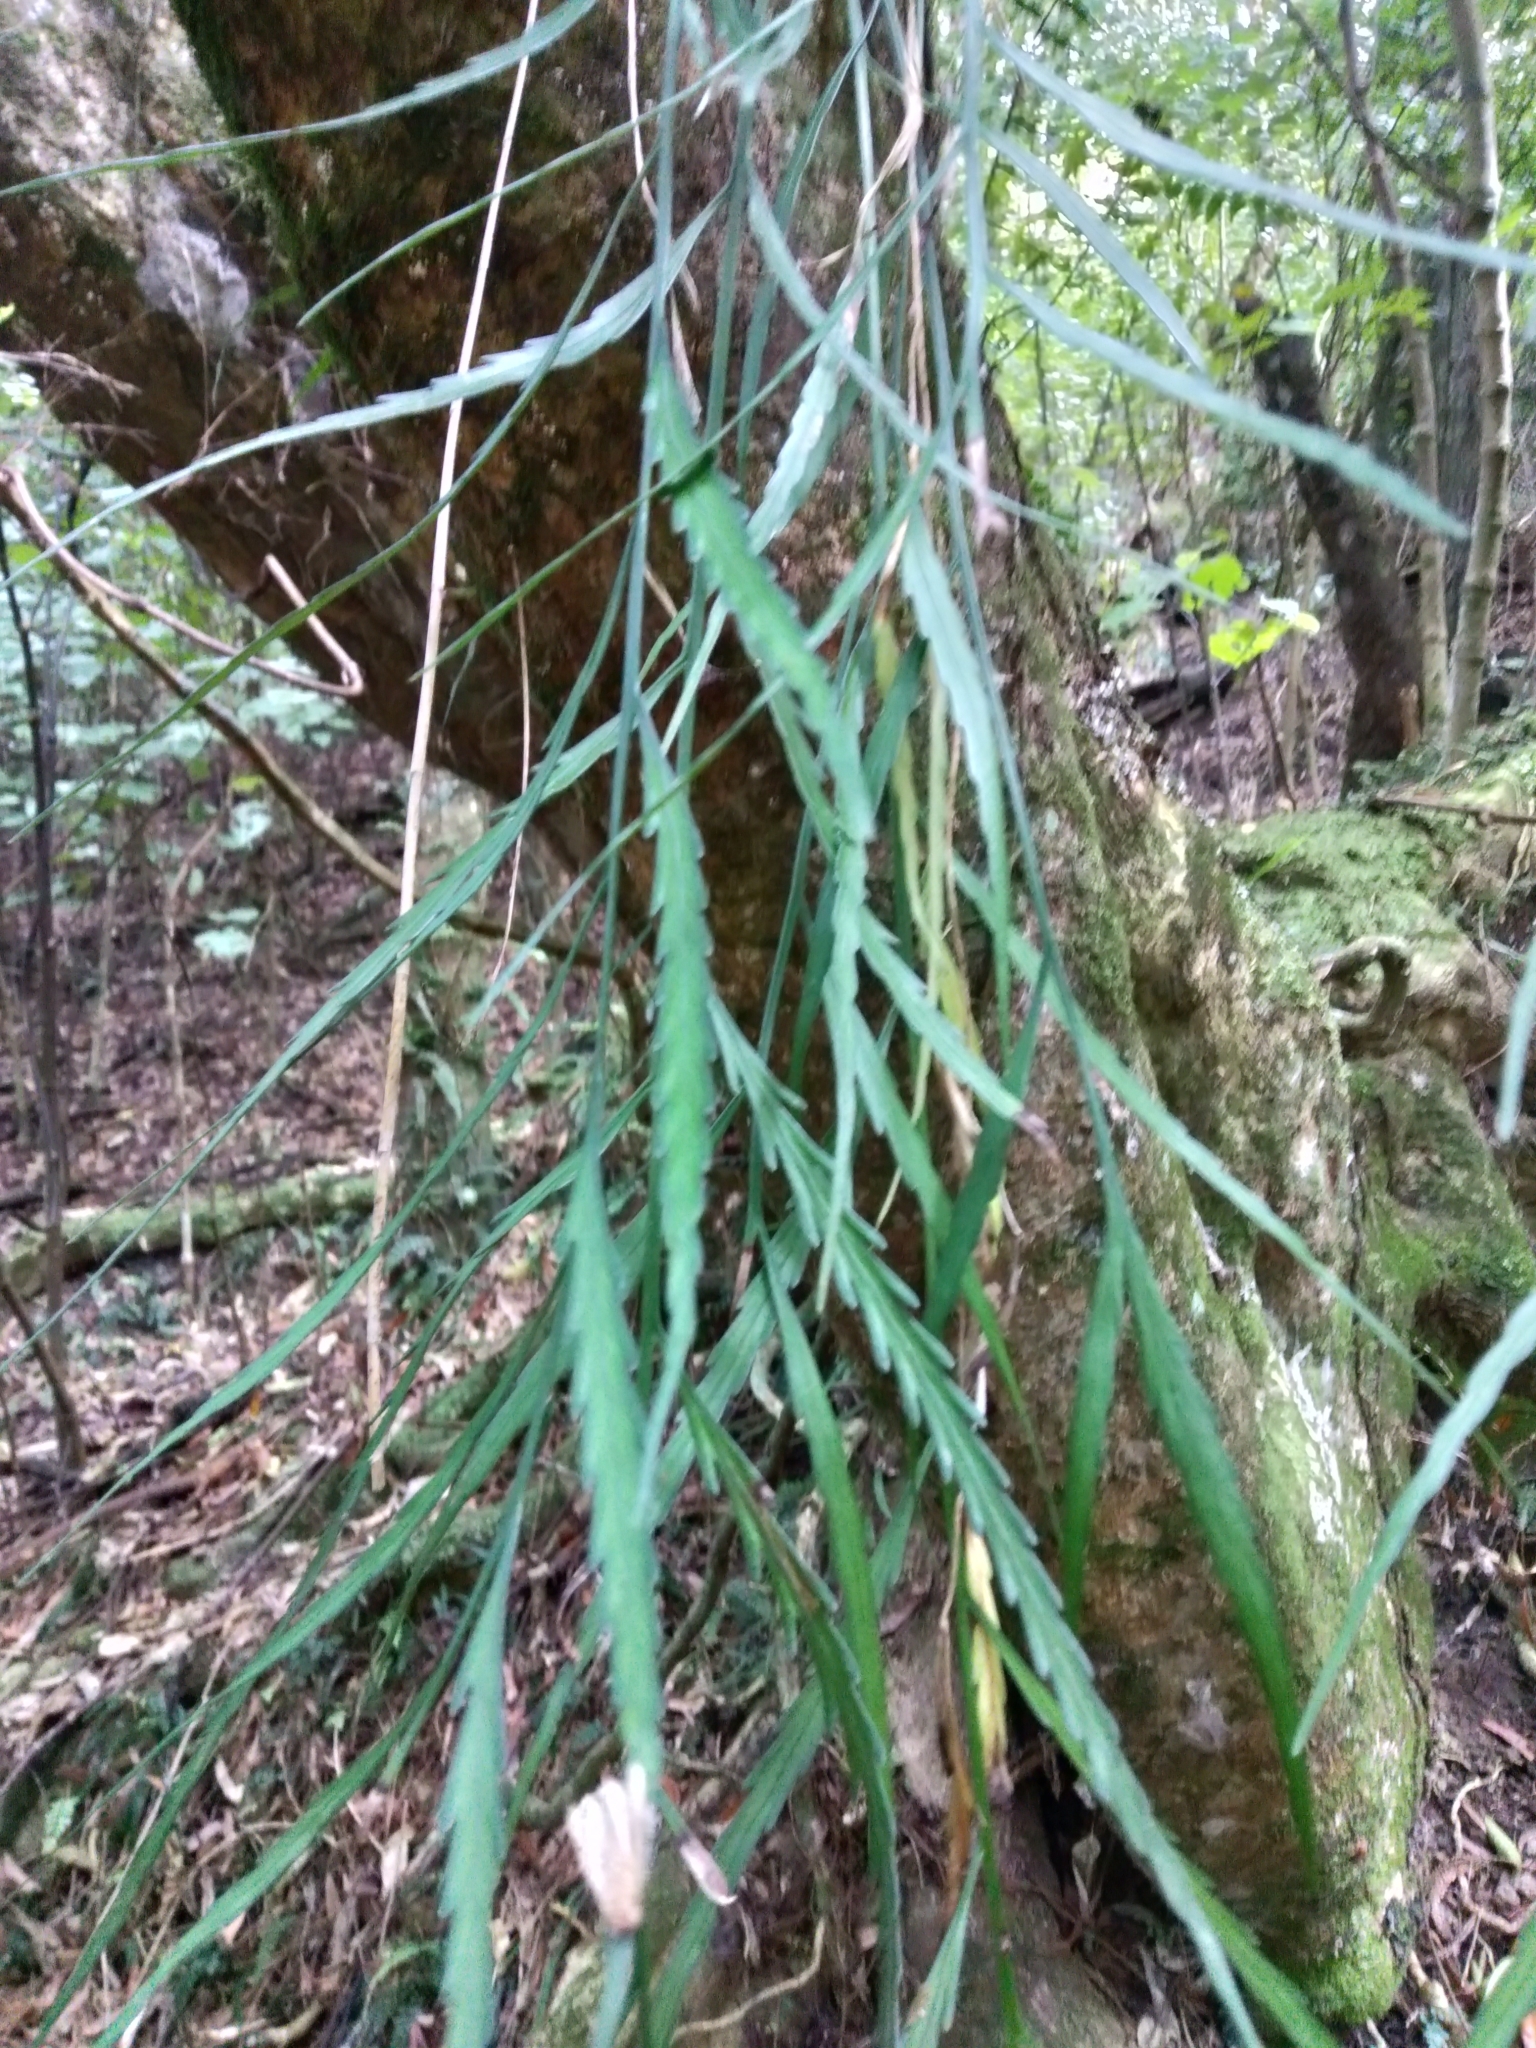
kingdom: Plantae
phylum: Tracheophyta
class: Polypodiopsida
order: Polypodiales
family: Aspleniaceae
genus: Asplenium
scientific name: Asplenium flaccidum
